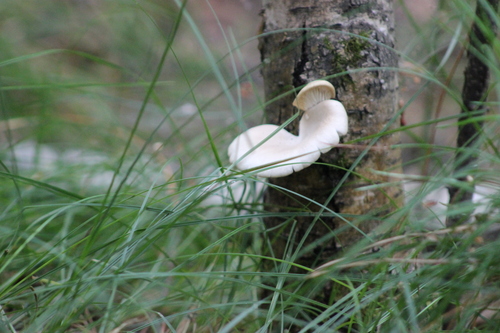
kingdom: Fungi
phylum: Basidiomycota
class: Agaricomycetes
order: Agaricales
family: Pleurotaceae
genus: Pleurotus
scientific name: Pleurotus pulmonarius
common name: Pale oyster
